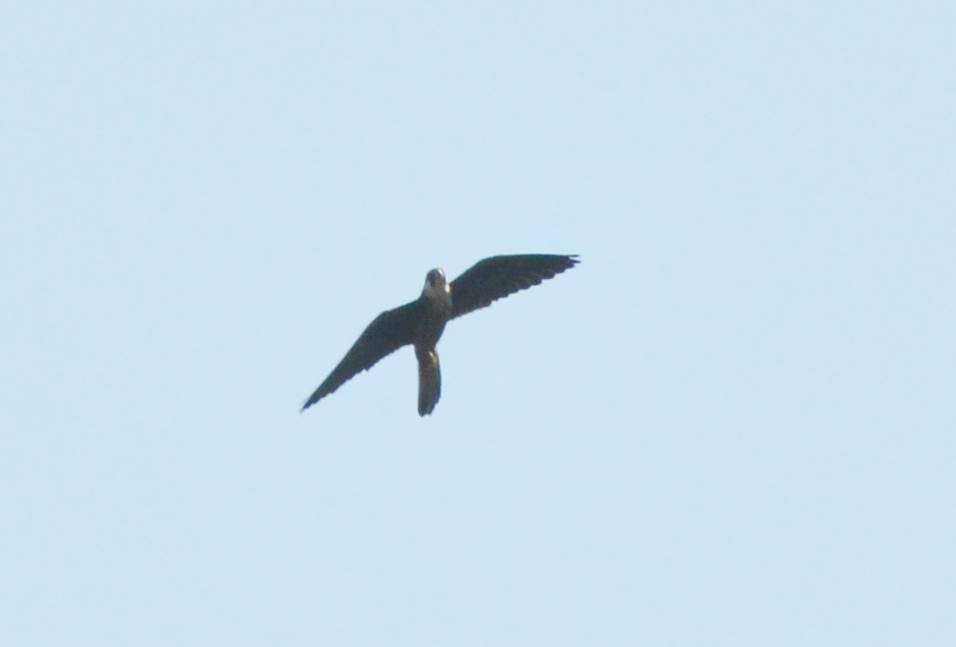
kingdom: Animalia
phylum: Chordata
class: Aves
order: Falconiformes
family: Falconidae
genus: Falco
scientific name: Falco eleonorae
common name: Eleonora's falcon
